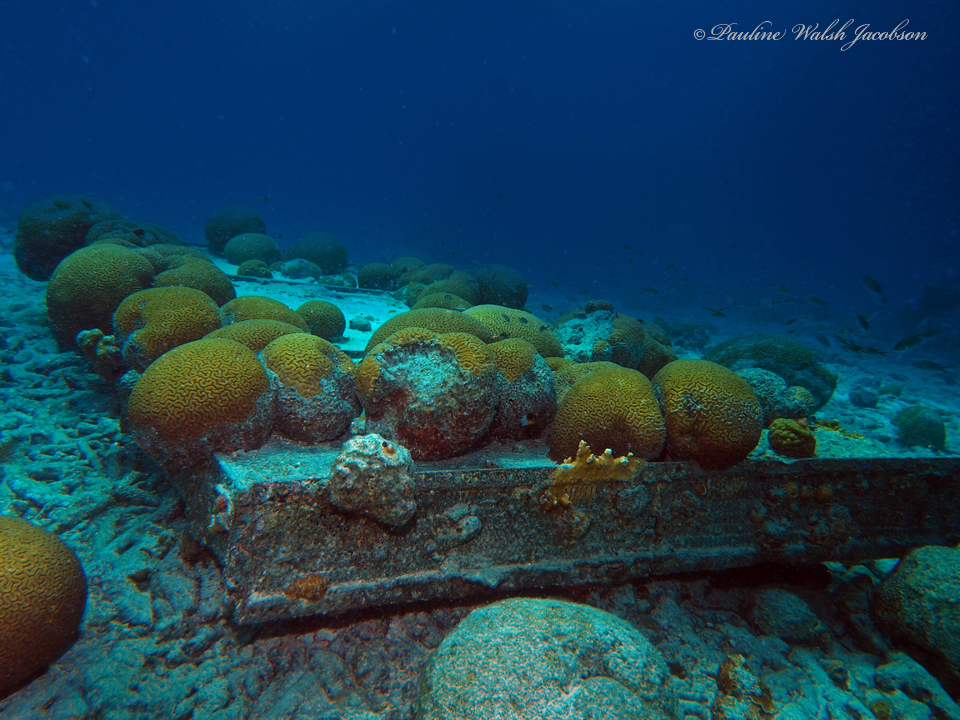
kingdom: Animalia
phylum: Cnidaria
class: Anthozoa
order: Scleractinia
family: Faviidae
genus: Diploria
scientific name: Diploria labyrinthiformis
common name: Grooved brain coral
